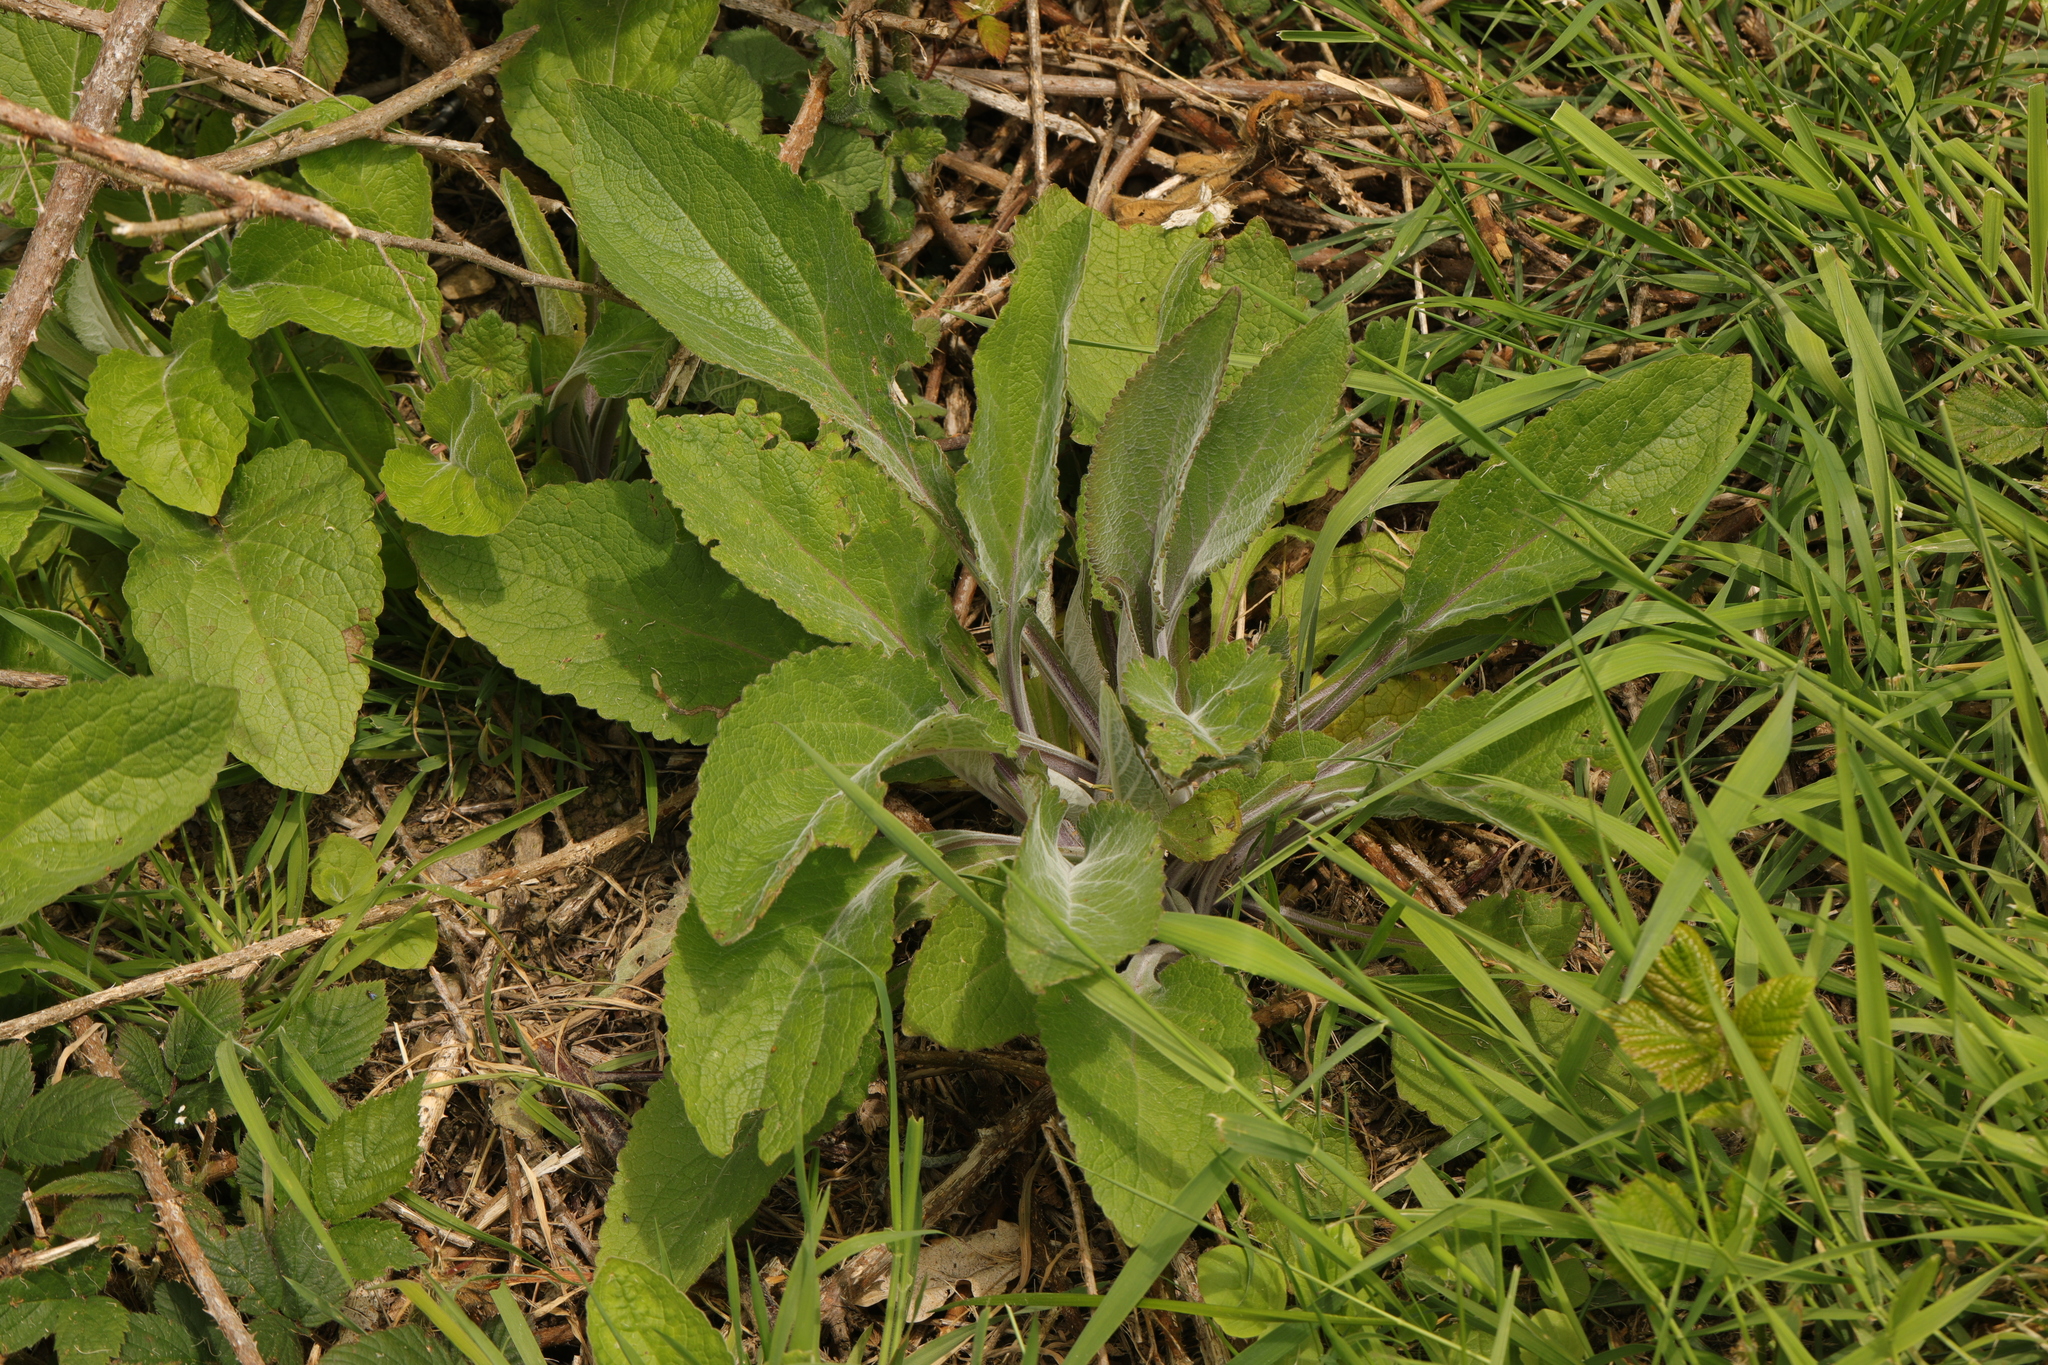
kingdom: Plantae
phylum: Tracheophyta
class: Magnoliopsida
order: Lamiales
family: Plantaginaceae
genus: Digitalis
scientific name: Digitalis purpurea
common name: Foxglove
